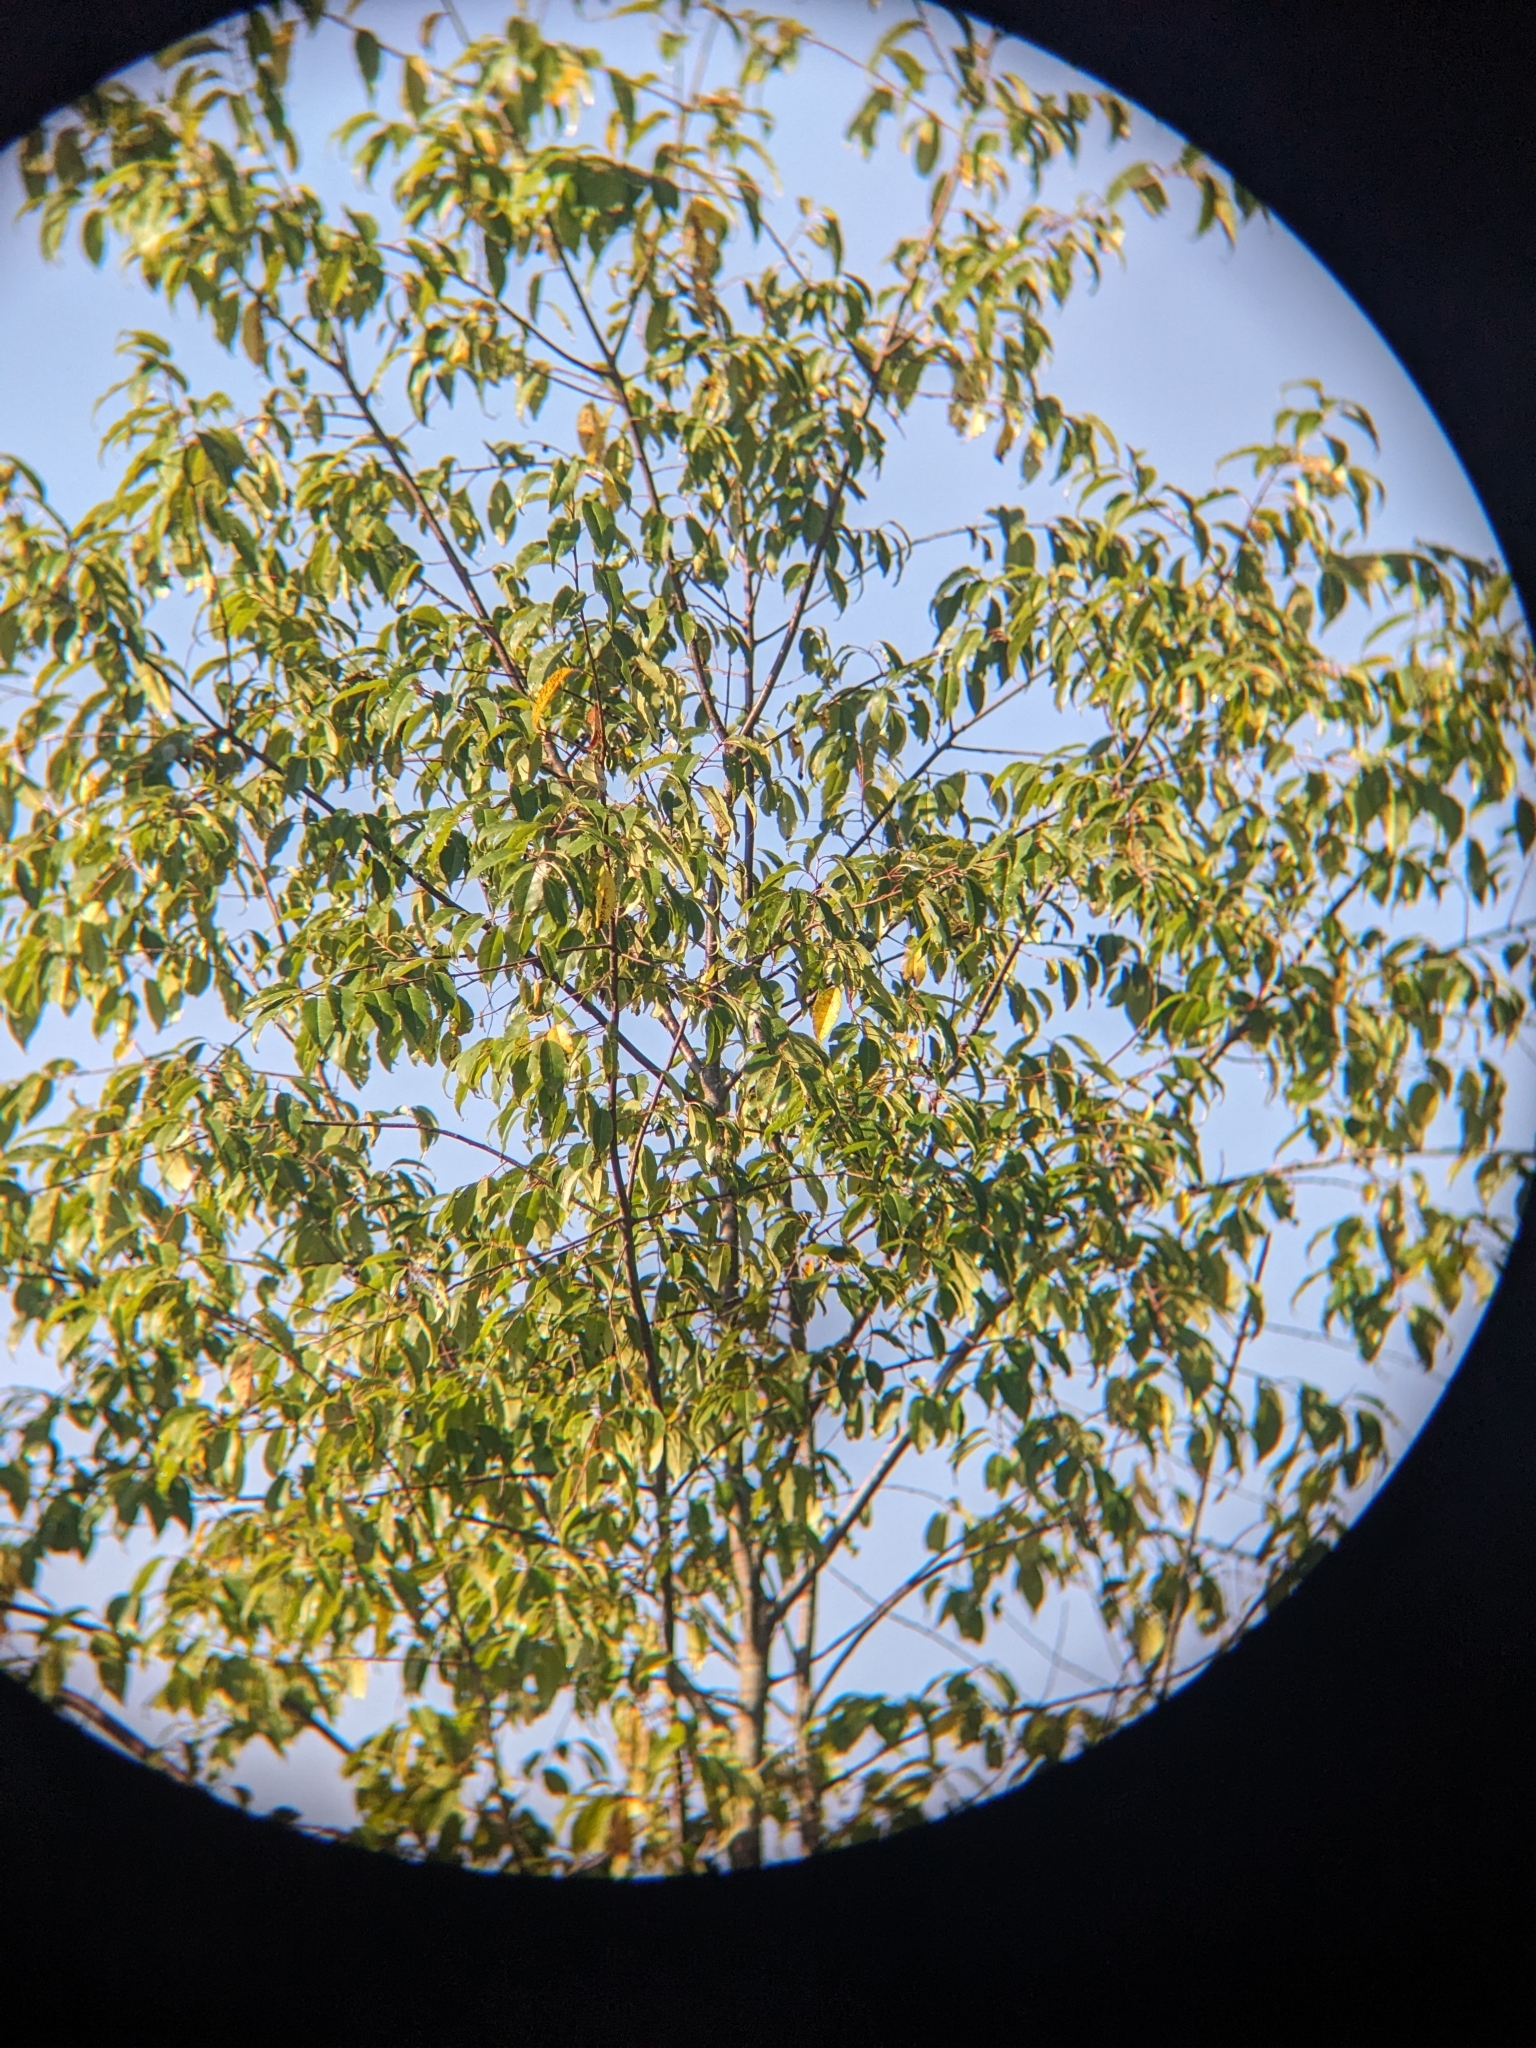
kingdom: Plantae
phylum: Tracheophyta
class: Magnoliopsida
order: Rosales
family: Rosaceae
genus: Prunus
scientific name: Prunus serotina
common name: Black cherry
